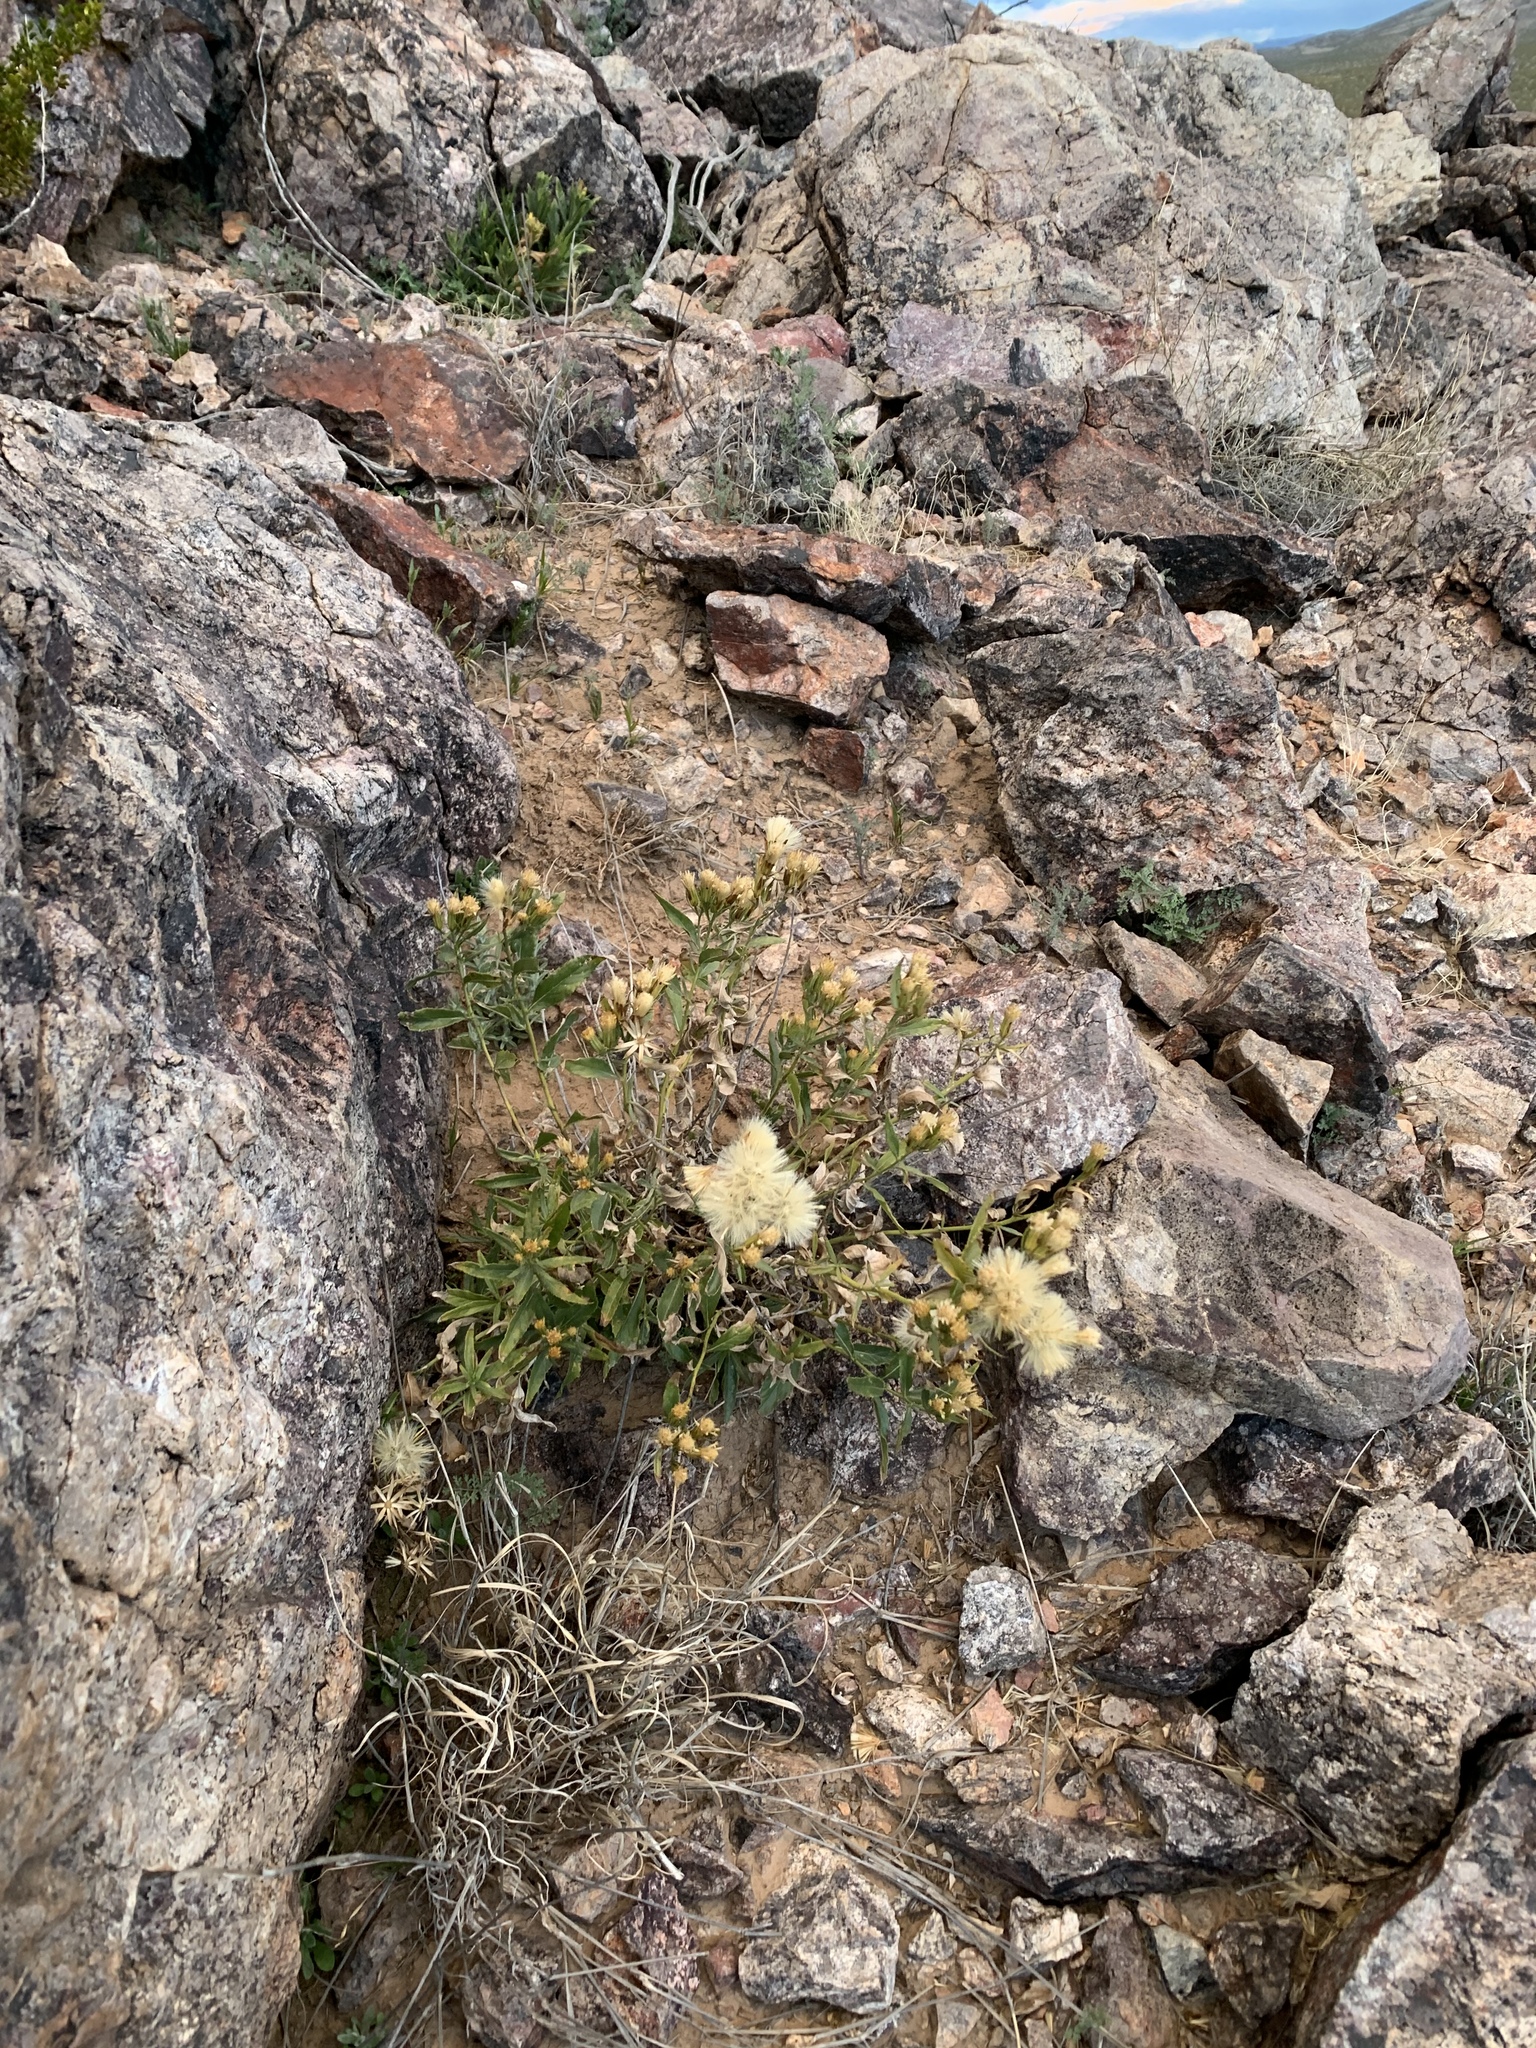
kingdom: Plantae
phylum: Tracheophyta
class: Magnoliopsida
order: Asterales
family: Asteraceae
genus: Trixis
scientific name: Trixis californica
